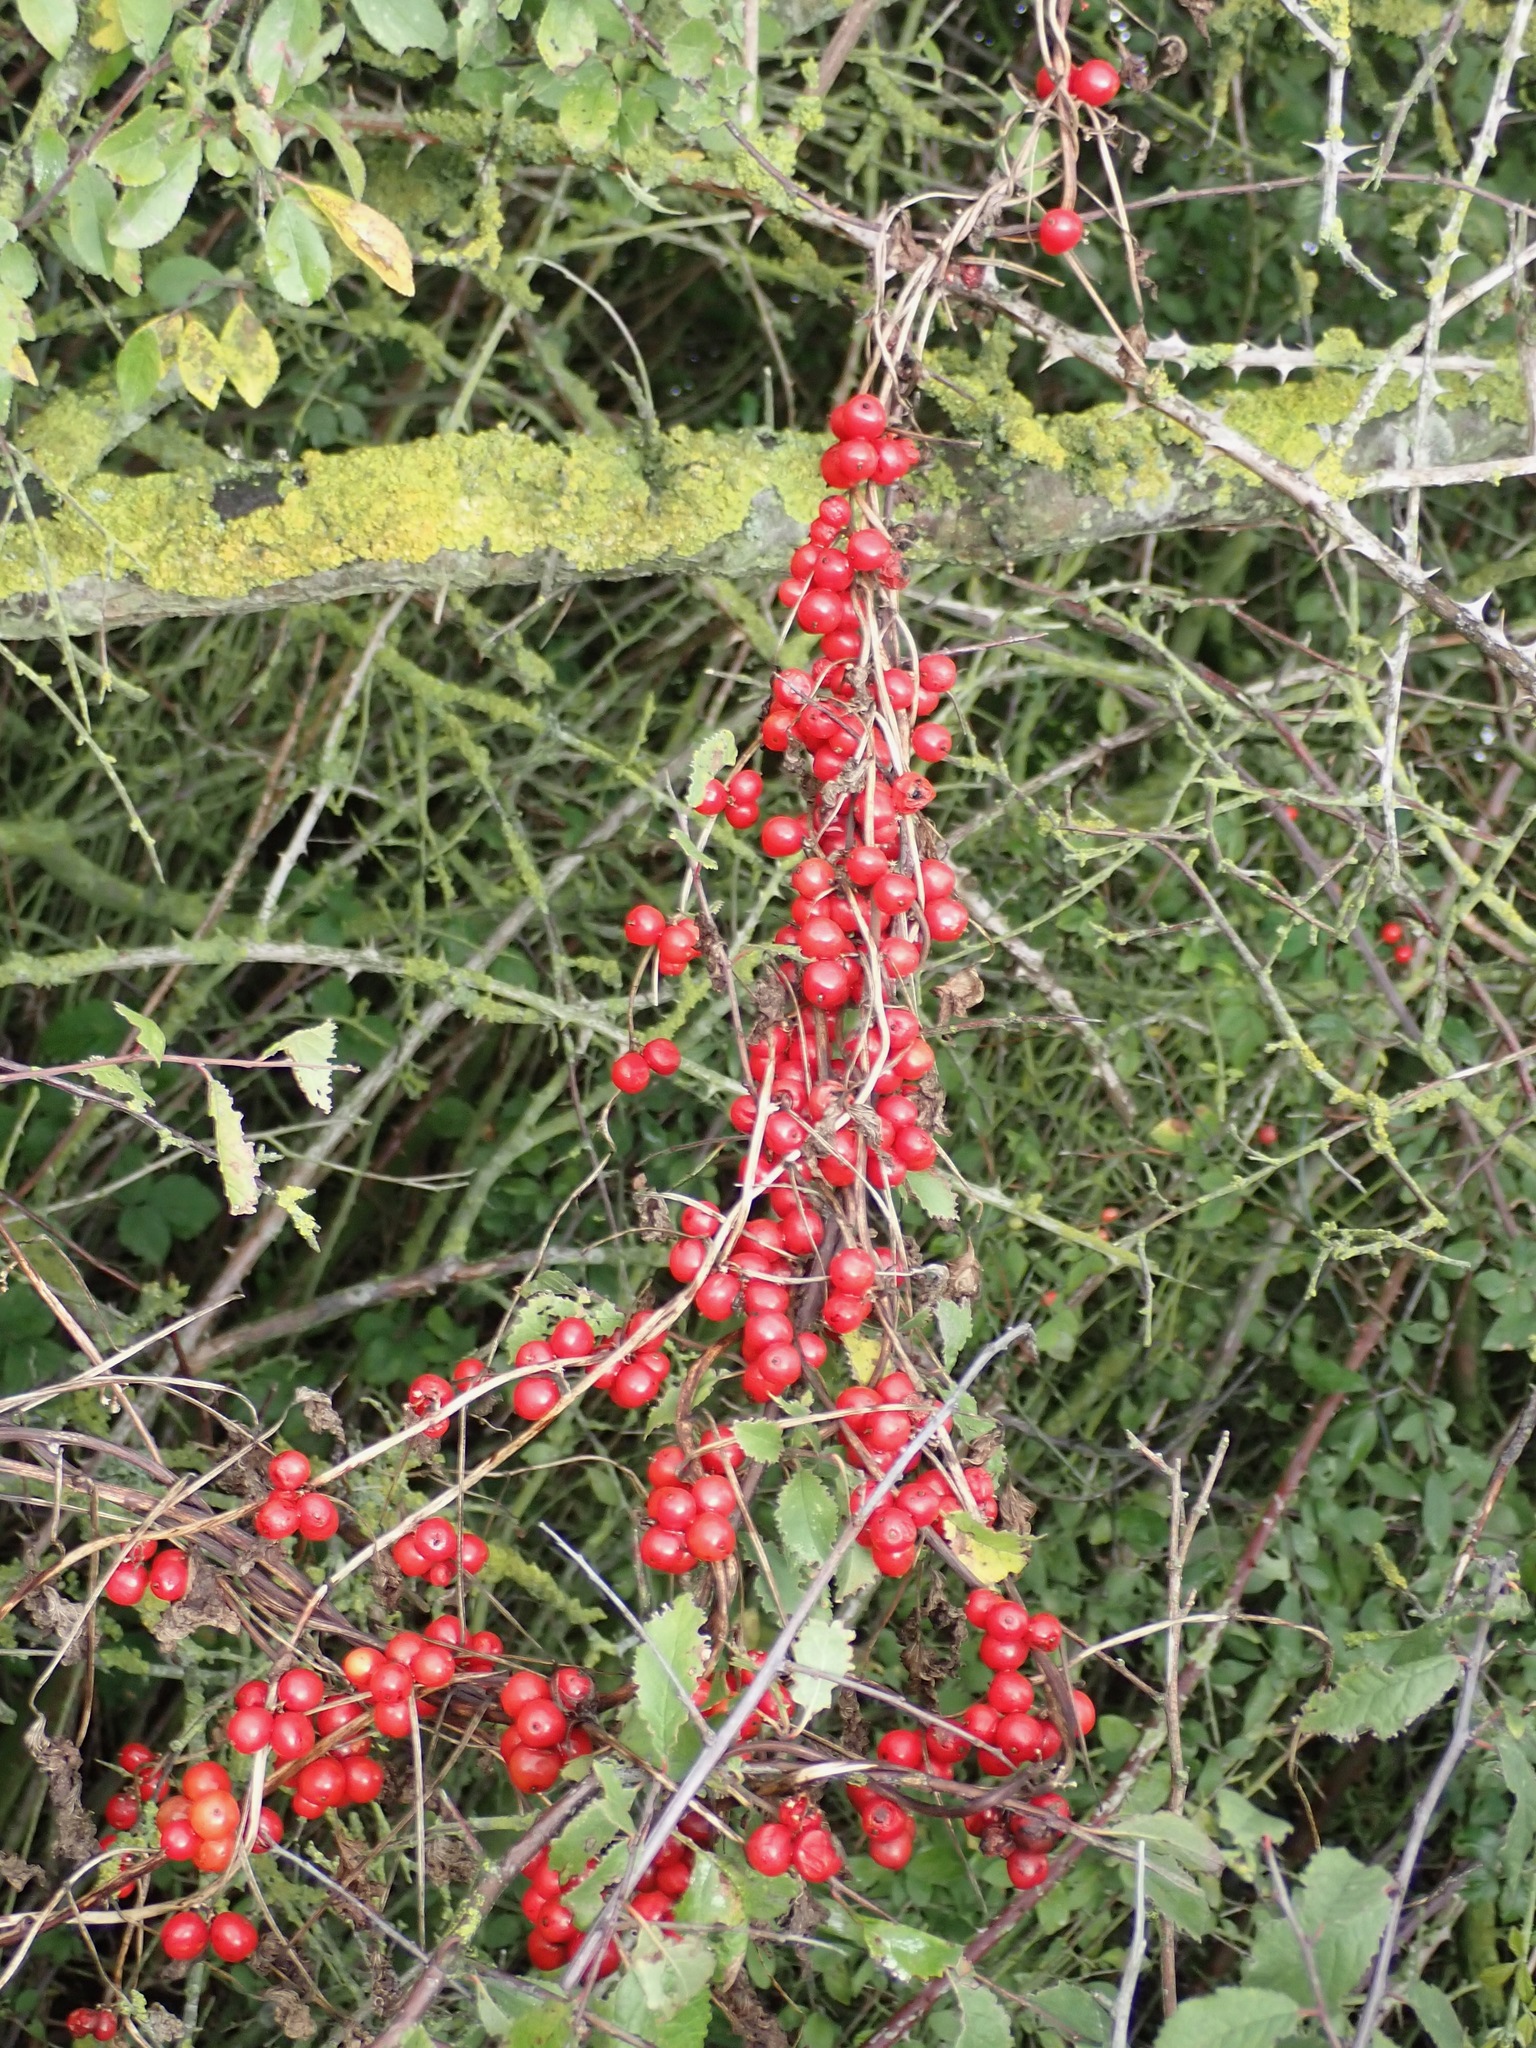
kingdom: Plantae
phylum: Tracheophyta
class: Liliopsida
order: Dioscoreales
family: Dioscoreaceae
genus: Dioscorea
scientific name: Dioscorea communis
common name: Black-bindweed
